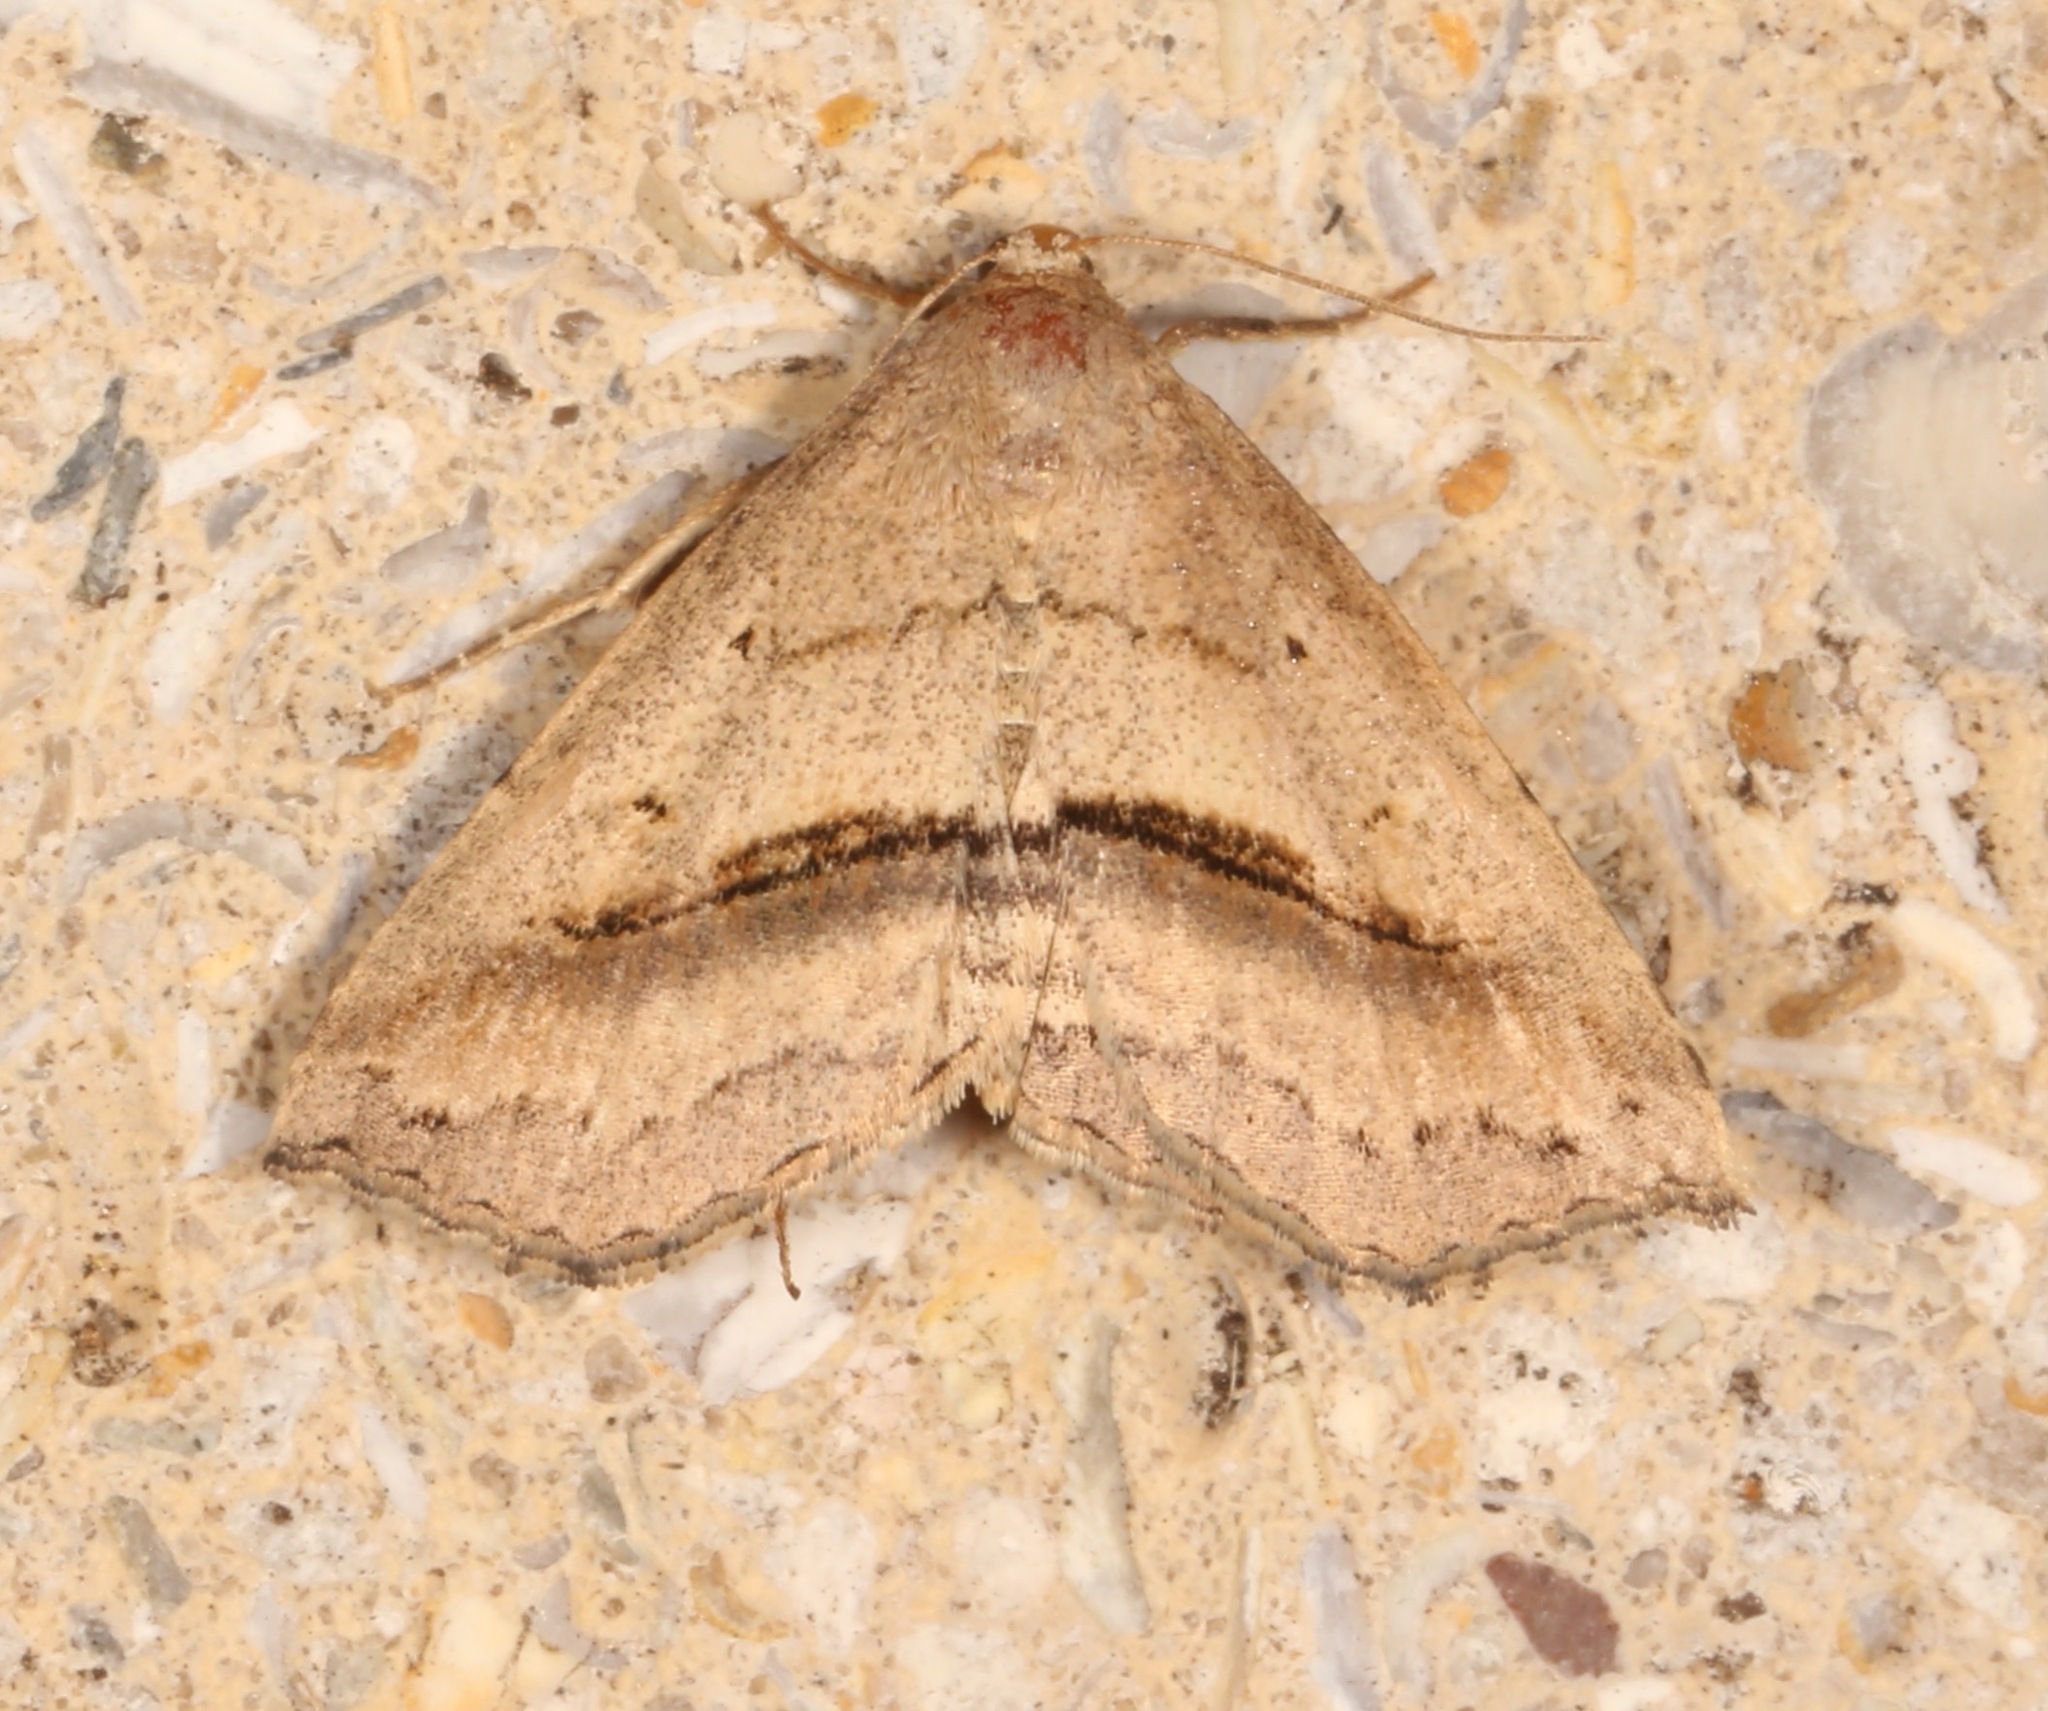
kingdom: Animalia
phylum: Arthropoda
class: Insecta
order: Lepidoptera
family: Erebidae
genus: Spargaloma
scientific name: Spargaloma perditalis
